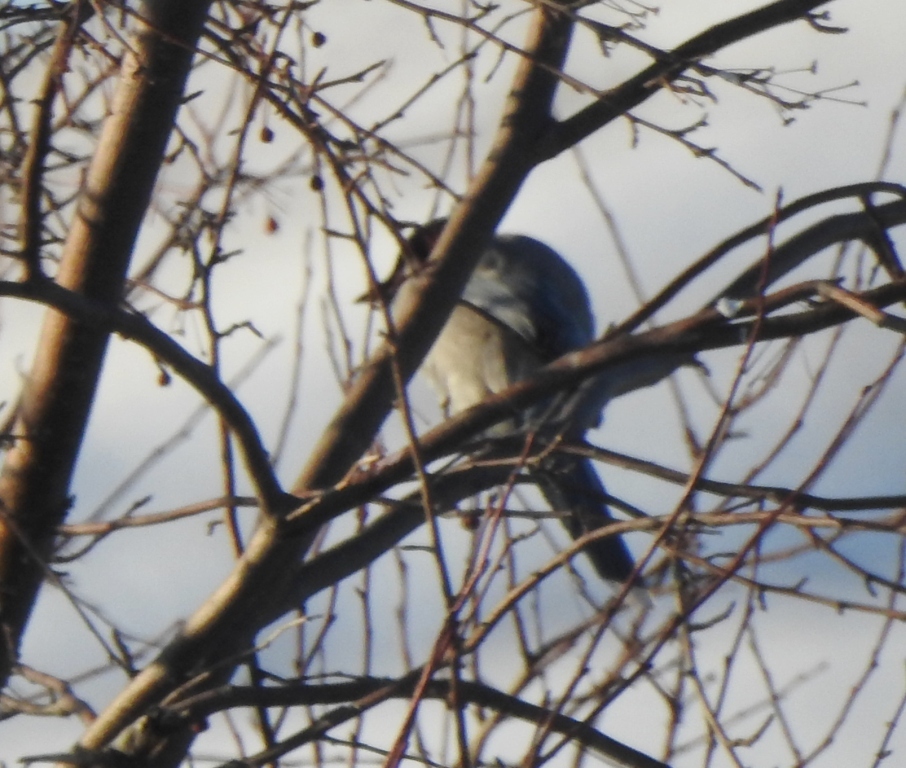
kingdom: Animalia
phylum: Chordata
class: Aves
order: Passeriformes
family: Corvidae
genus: Cyanopica
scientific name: Cyanopica cyanus
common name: Azure-winged magpie
